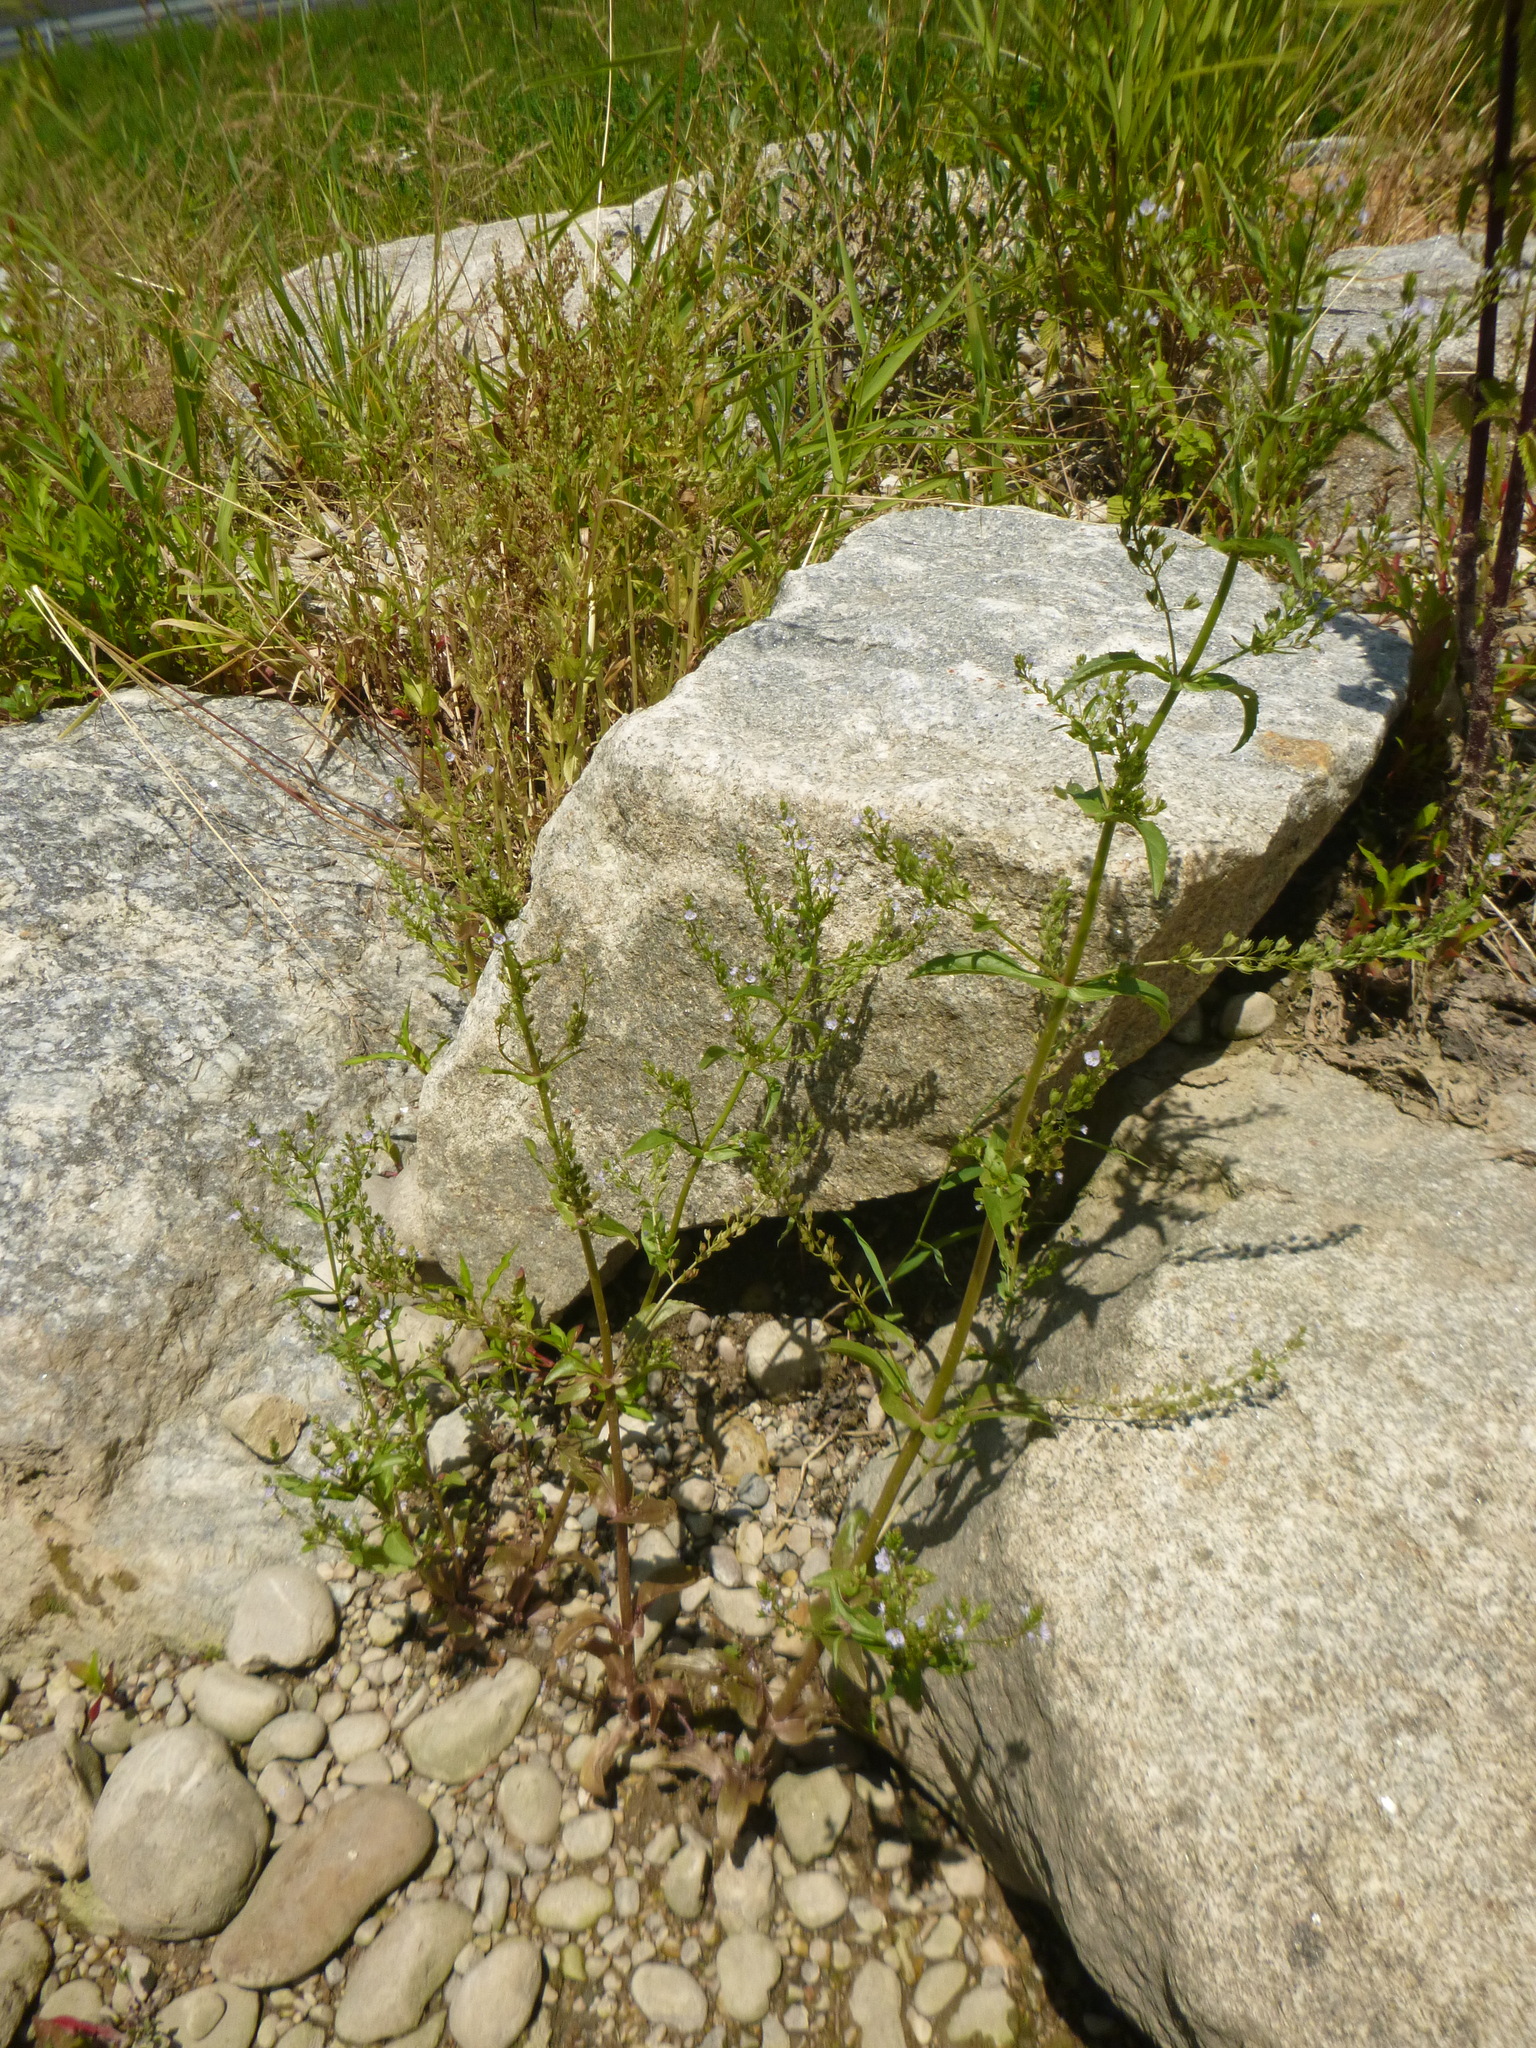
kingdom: Plantae
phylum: Tracheophyta
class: Magnoliopsida
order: Lamiales
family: Plantaginaceae
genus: Veronica
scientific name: Veronica anagallis-aquatica
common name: Water speedwell
